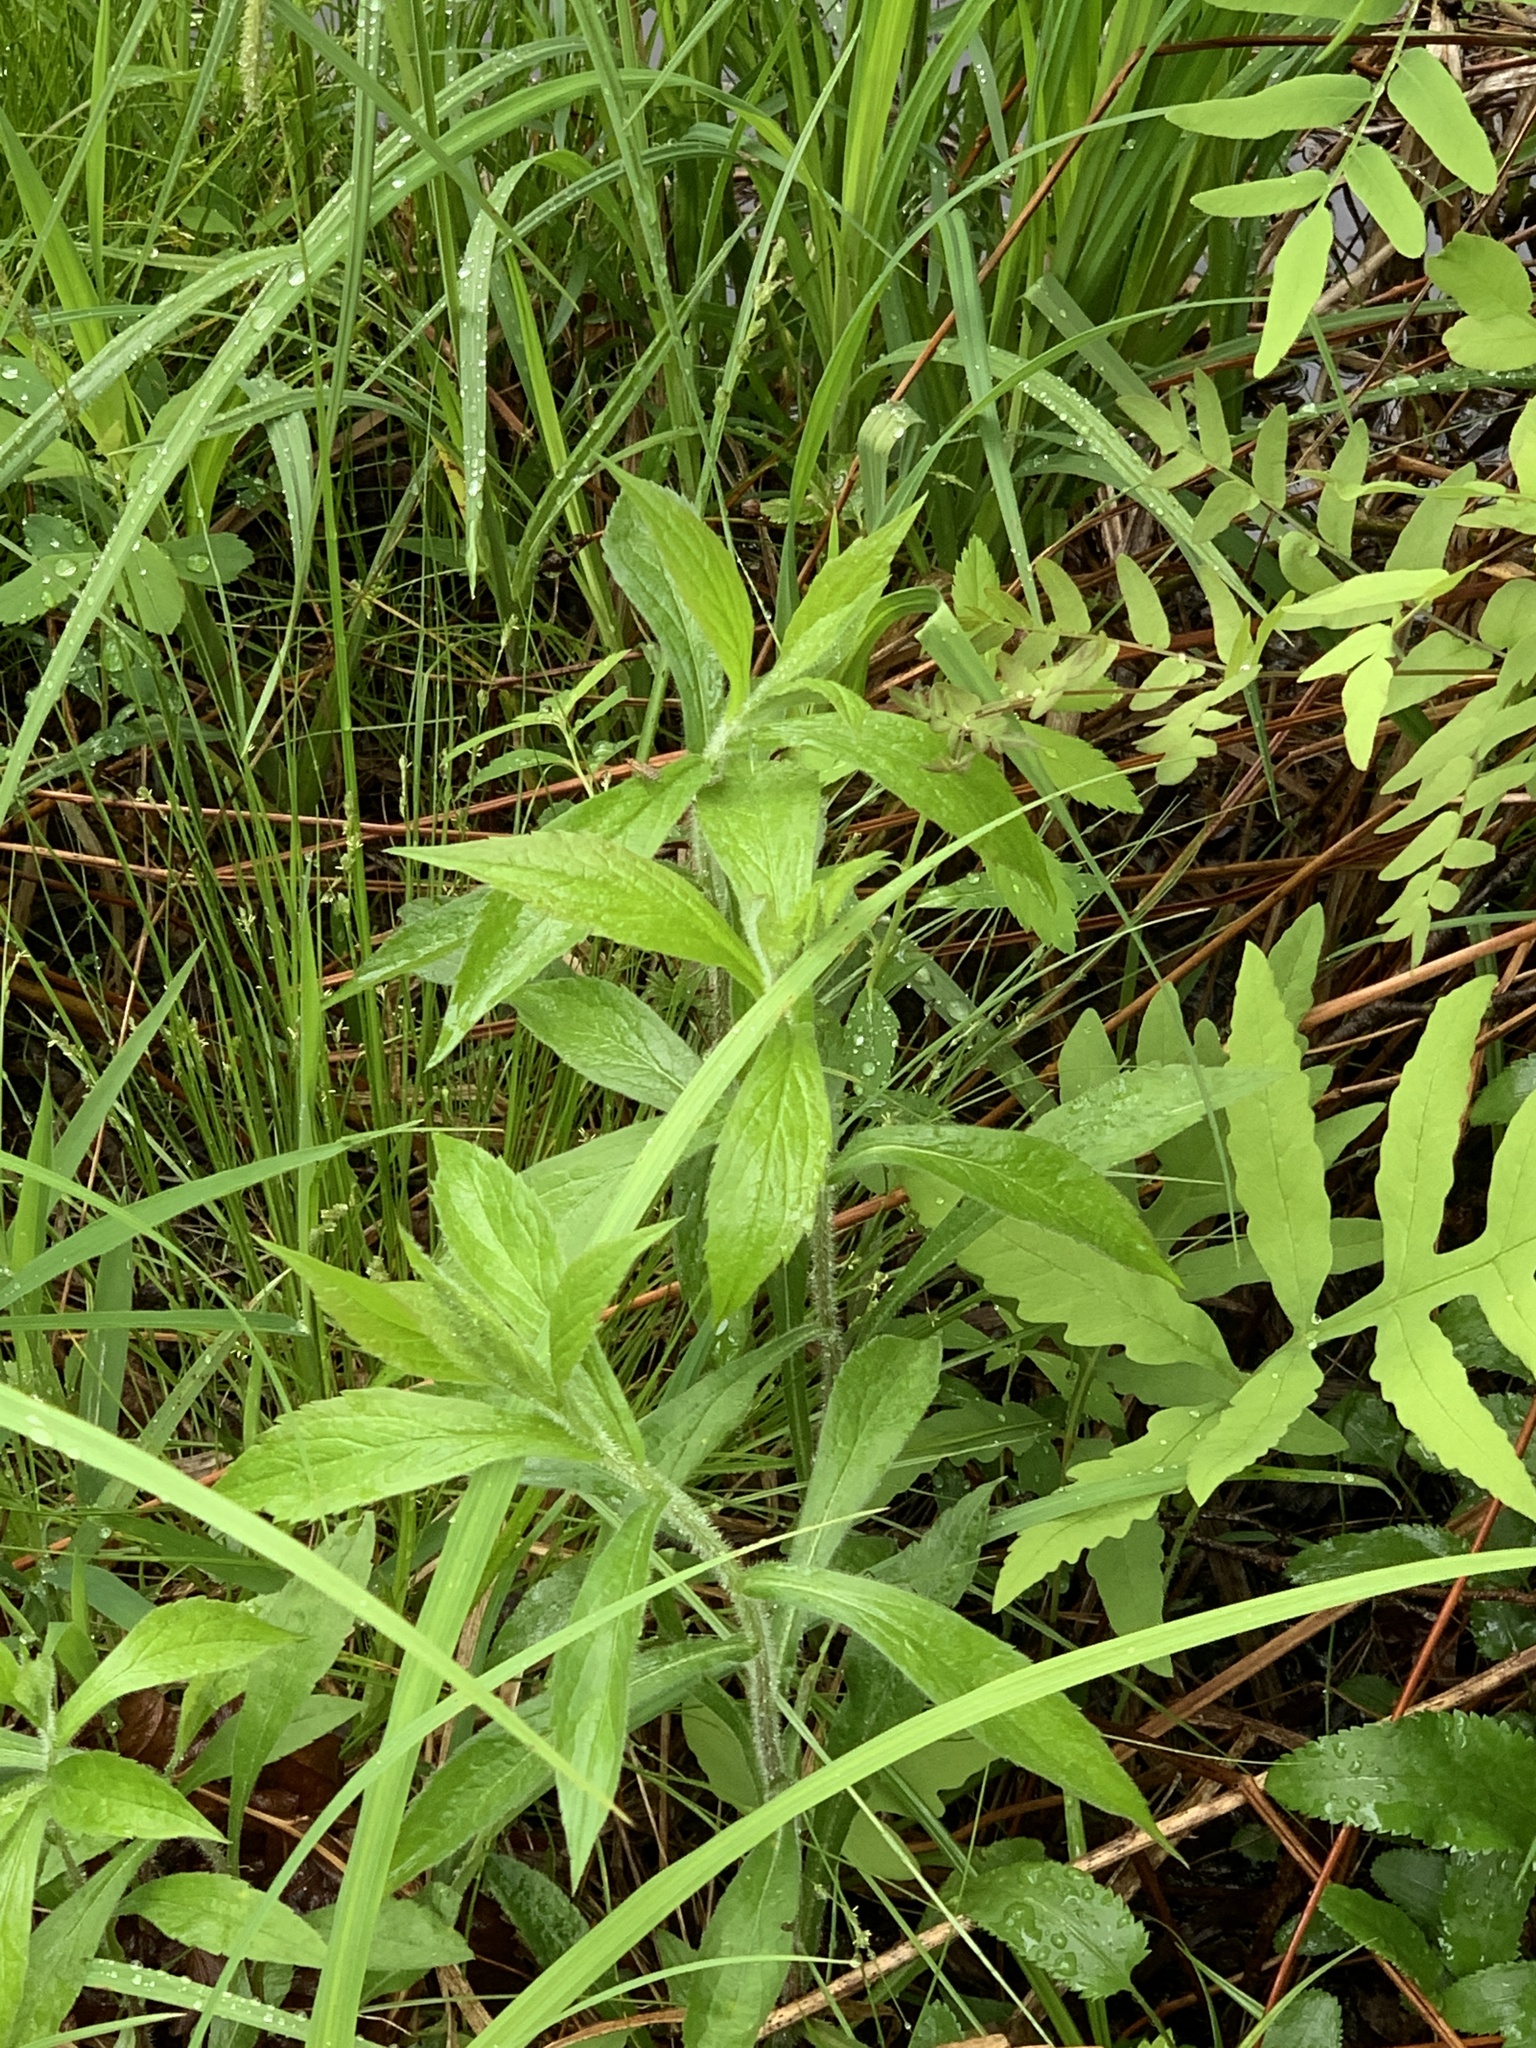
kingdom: Plantae
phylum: Tracheophyta
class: Magnoliopsida
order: Asterales
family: Asteraceae
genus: Solidago
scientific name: Solidago rugosa
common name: Rough-stemmed goldenrod
